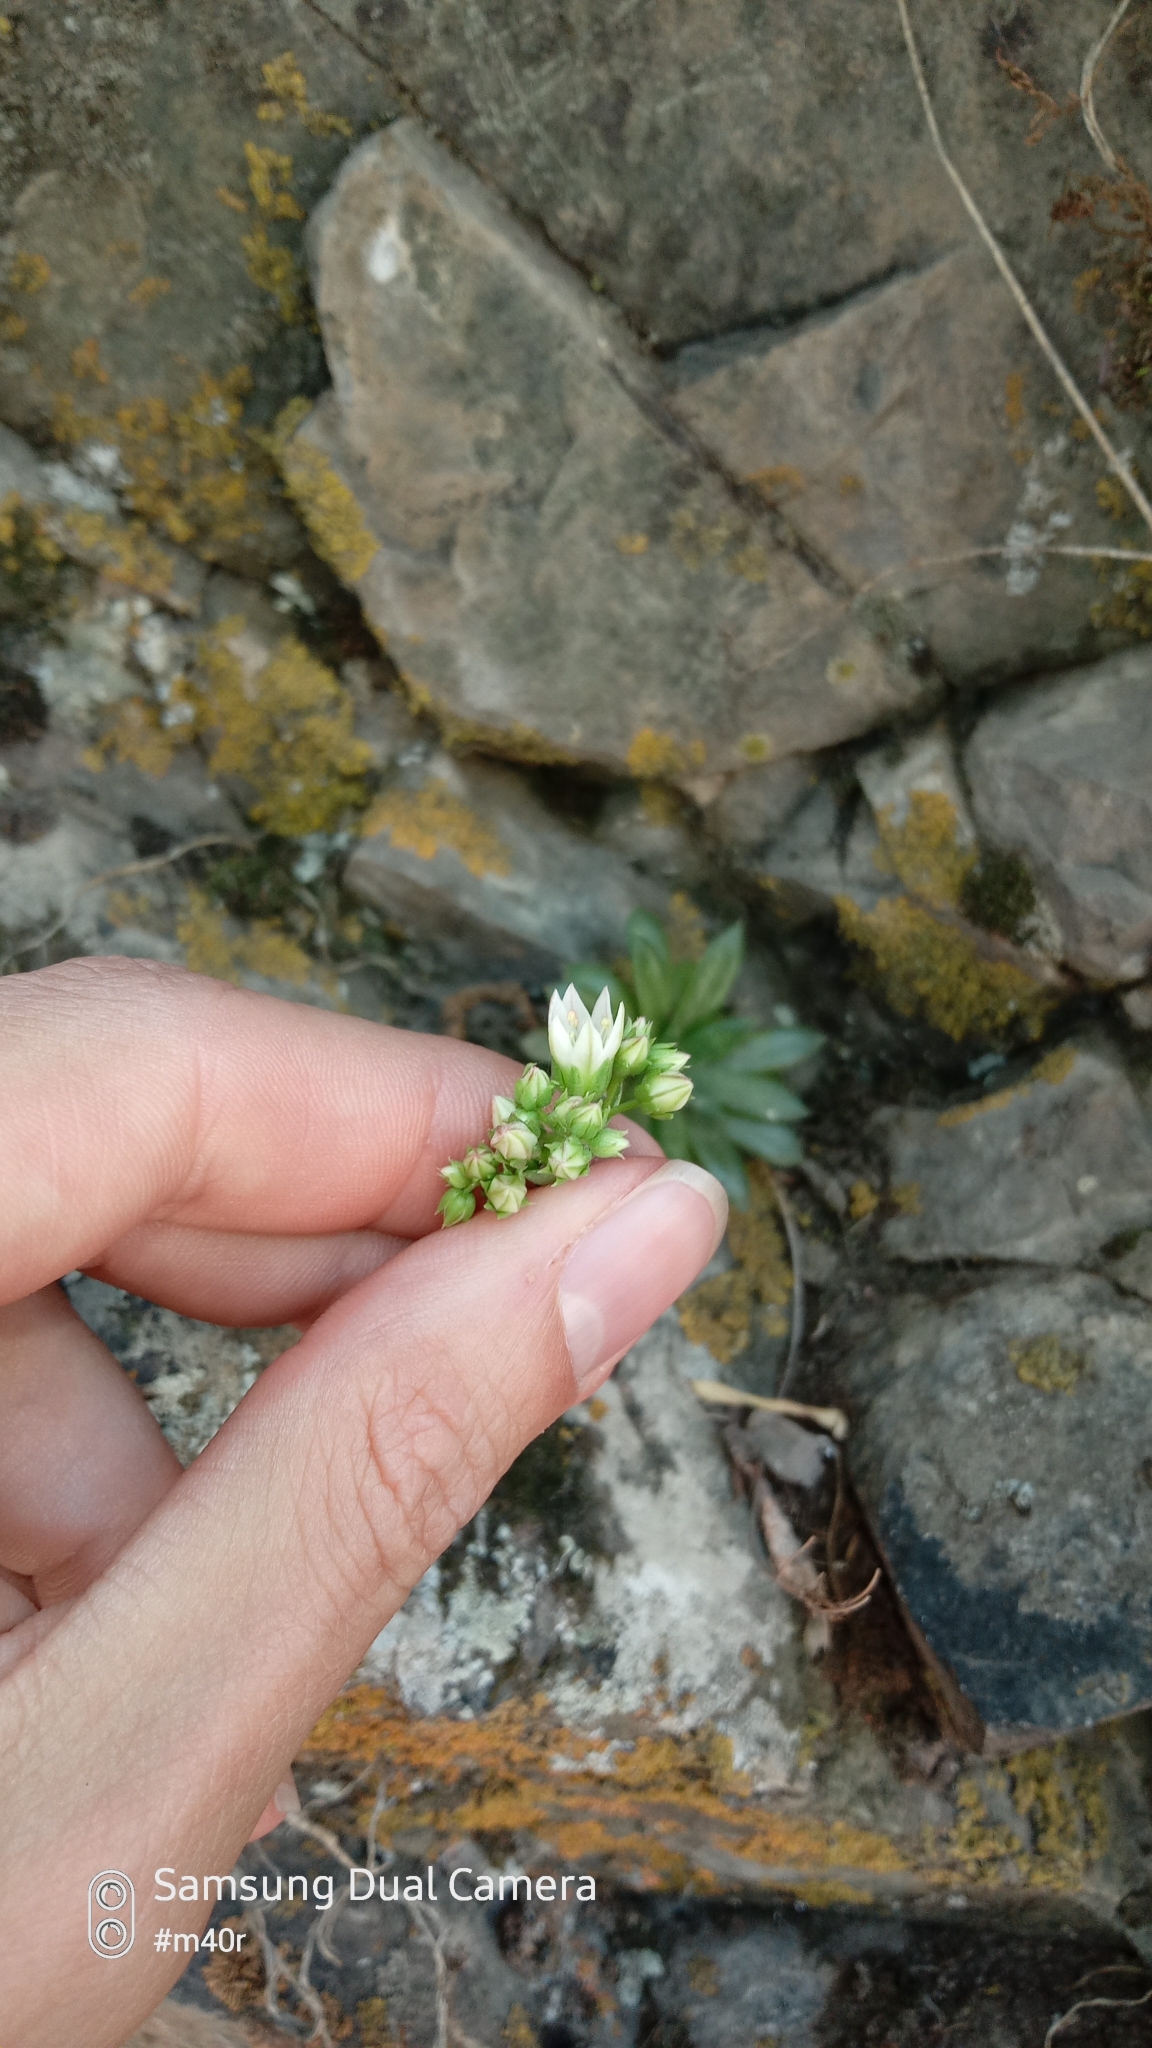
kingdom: Plantae
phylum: Tracheophyta
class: Magnoliopsida
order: Saxifragales
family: Crassulaceae
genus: Rosularia
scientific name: Rosularia alpestris
